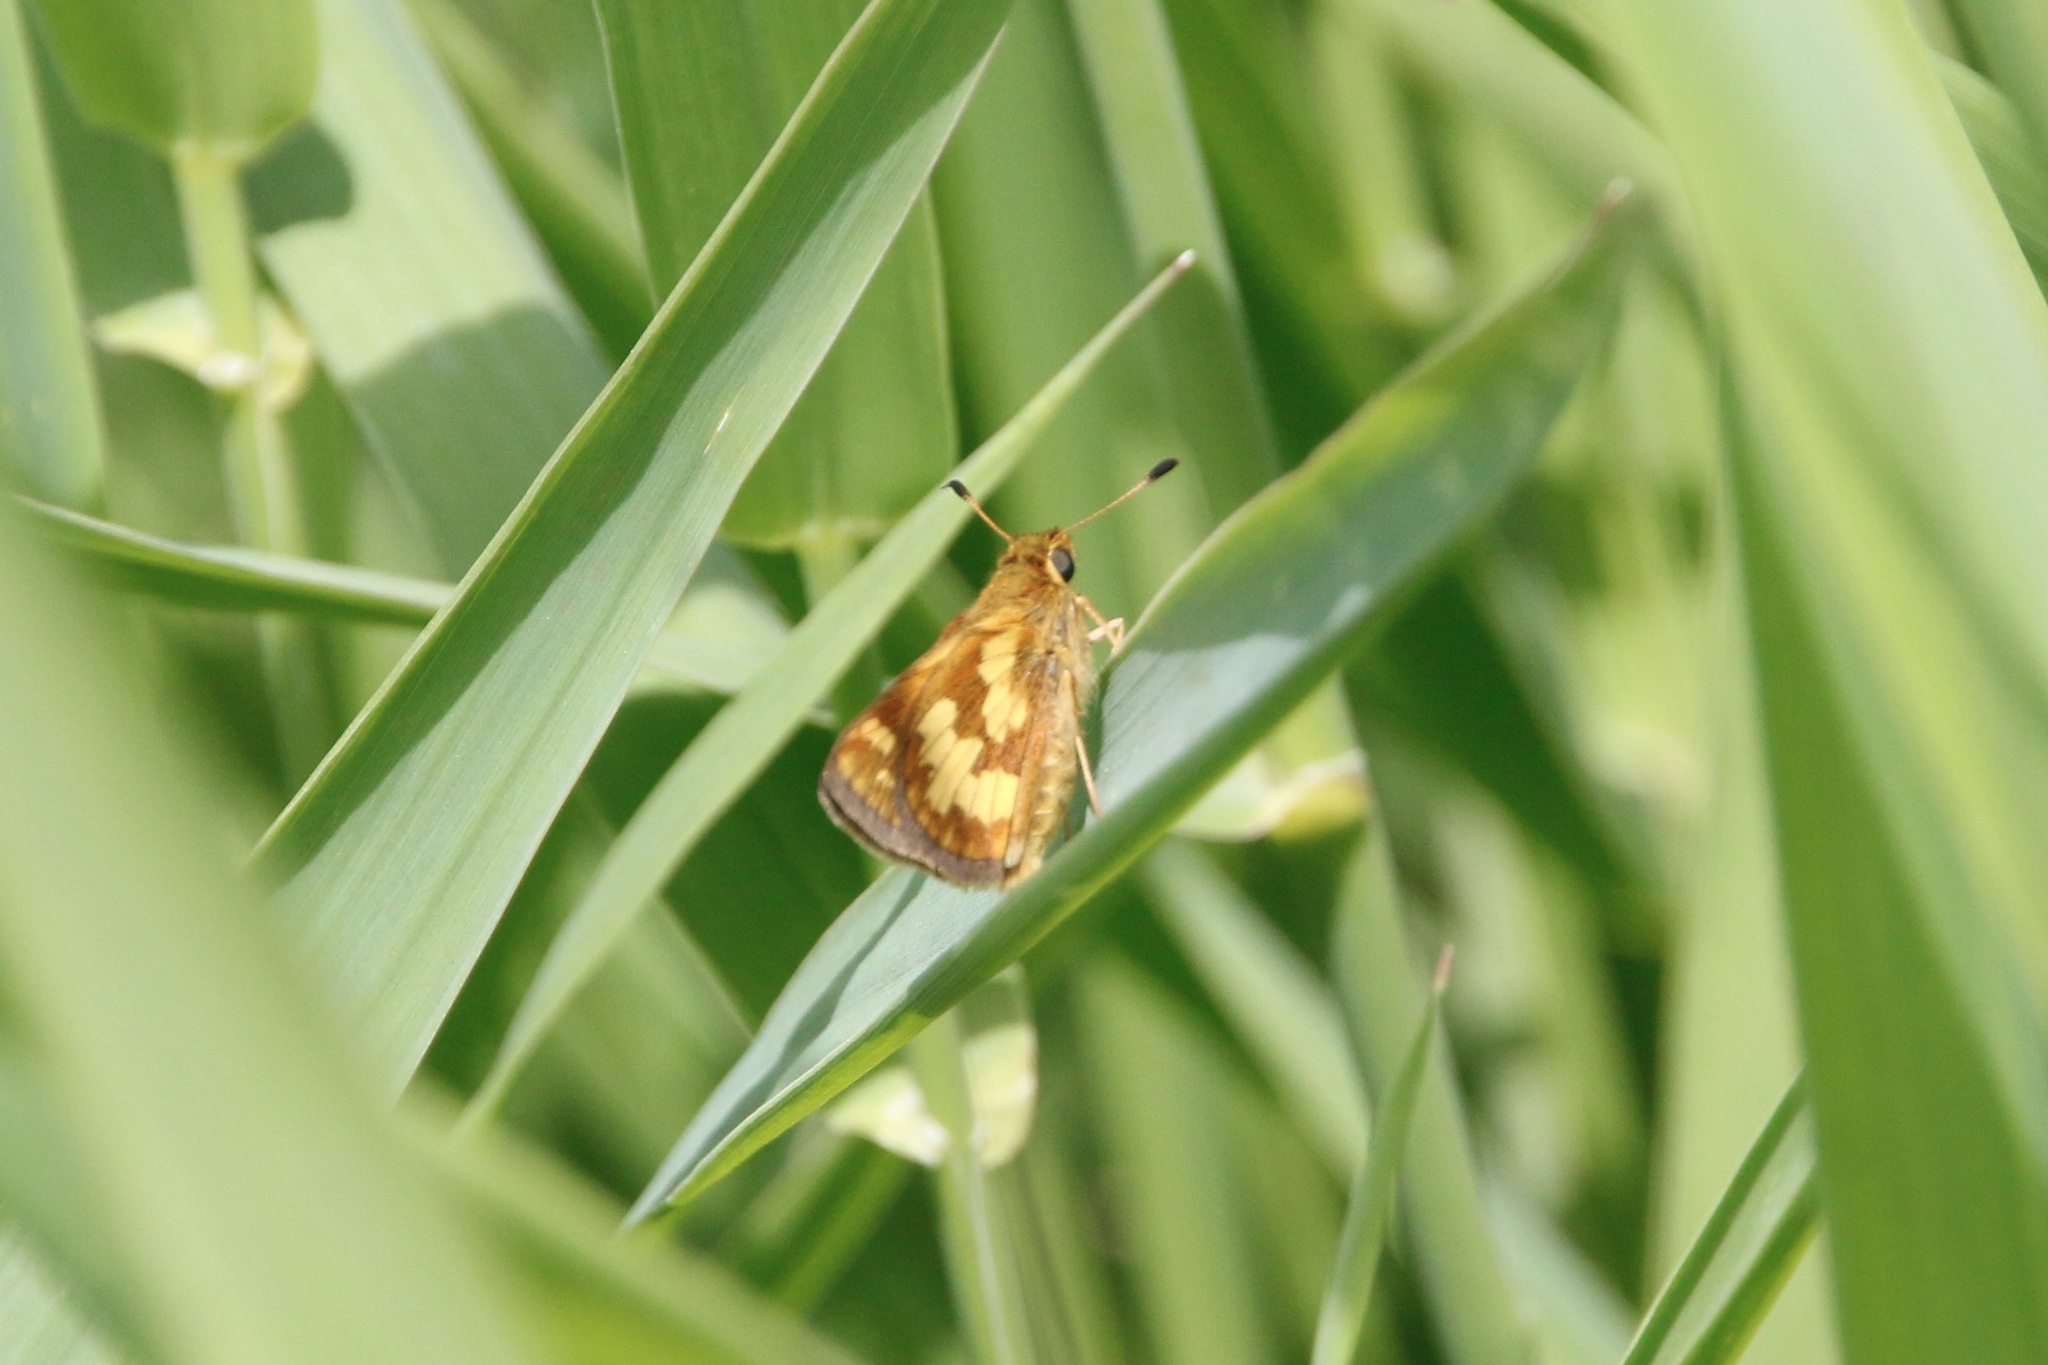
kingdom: Animalia
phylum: Arthropoda
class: Insecta
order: Lepidoptera
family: Hesperiidae
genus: Polites
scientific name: Polites coras
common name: Peck's skipper
